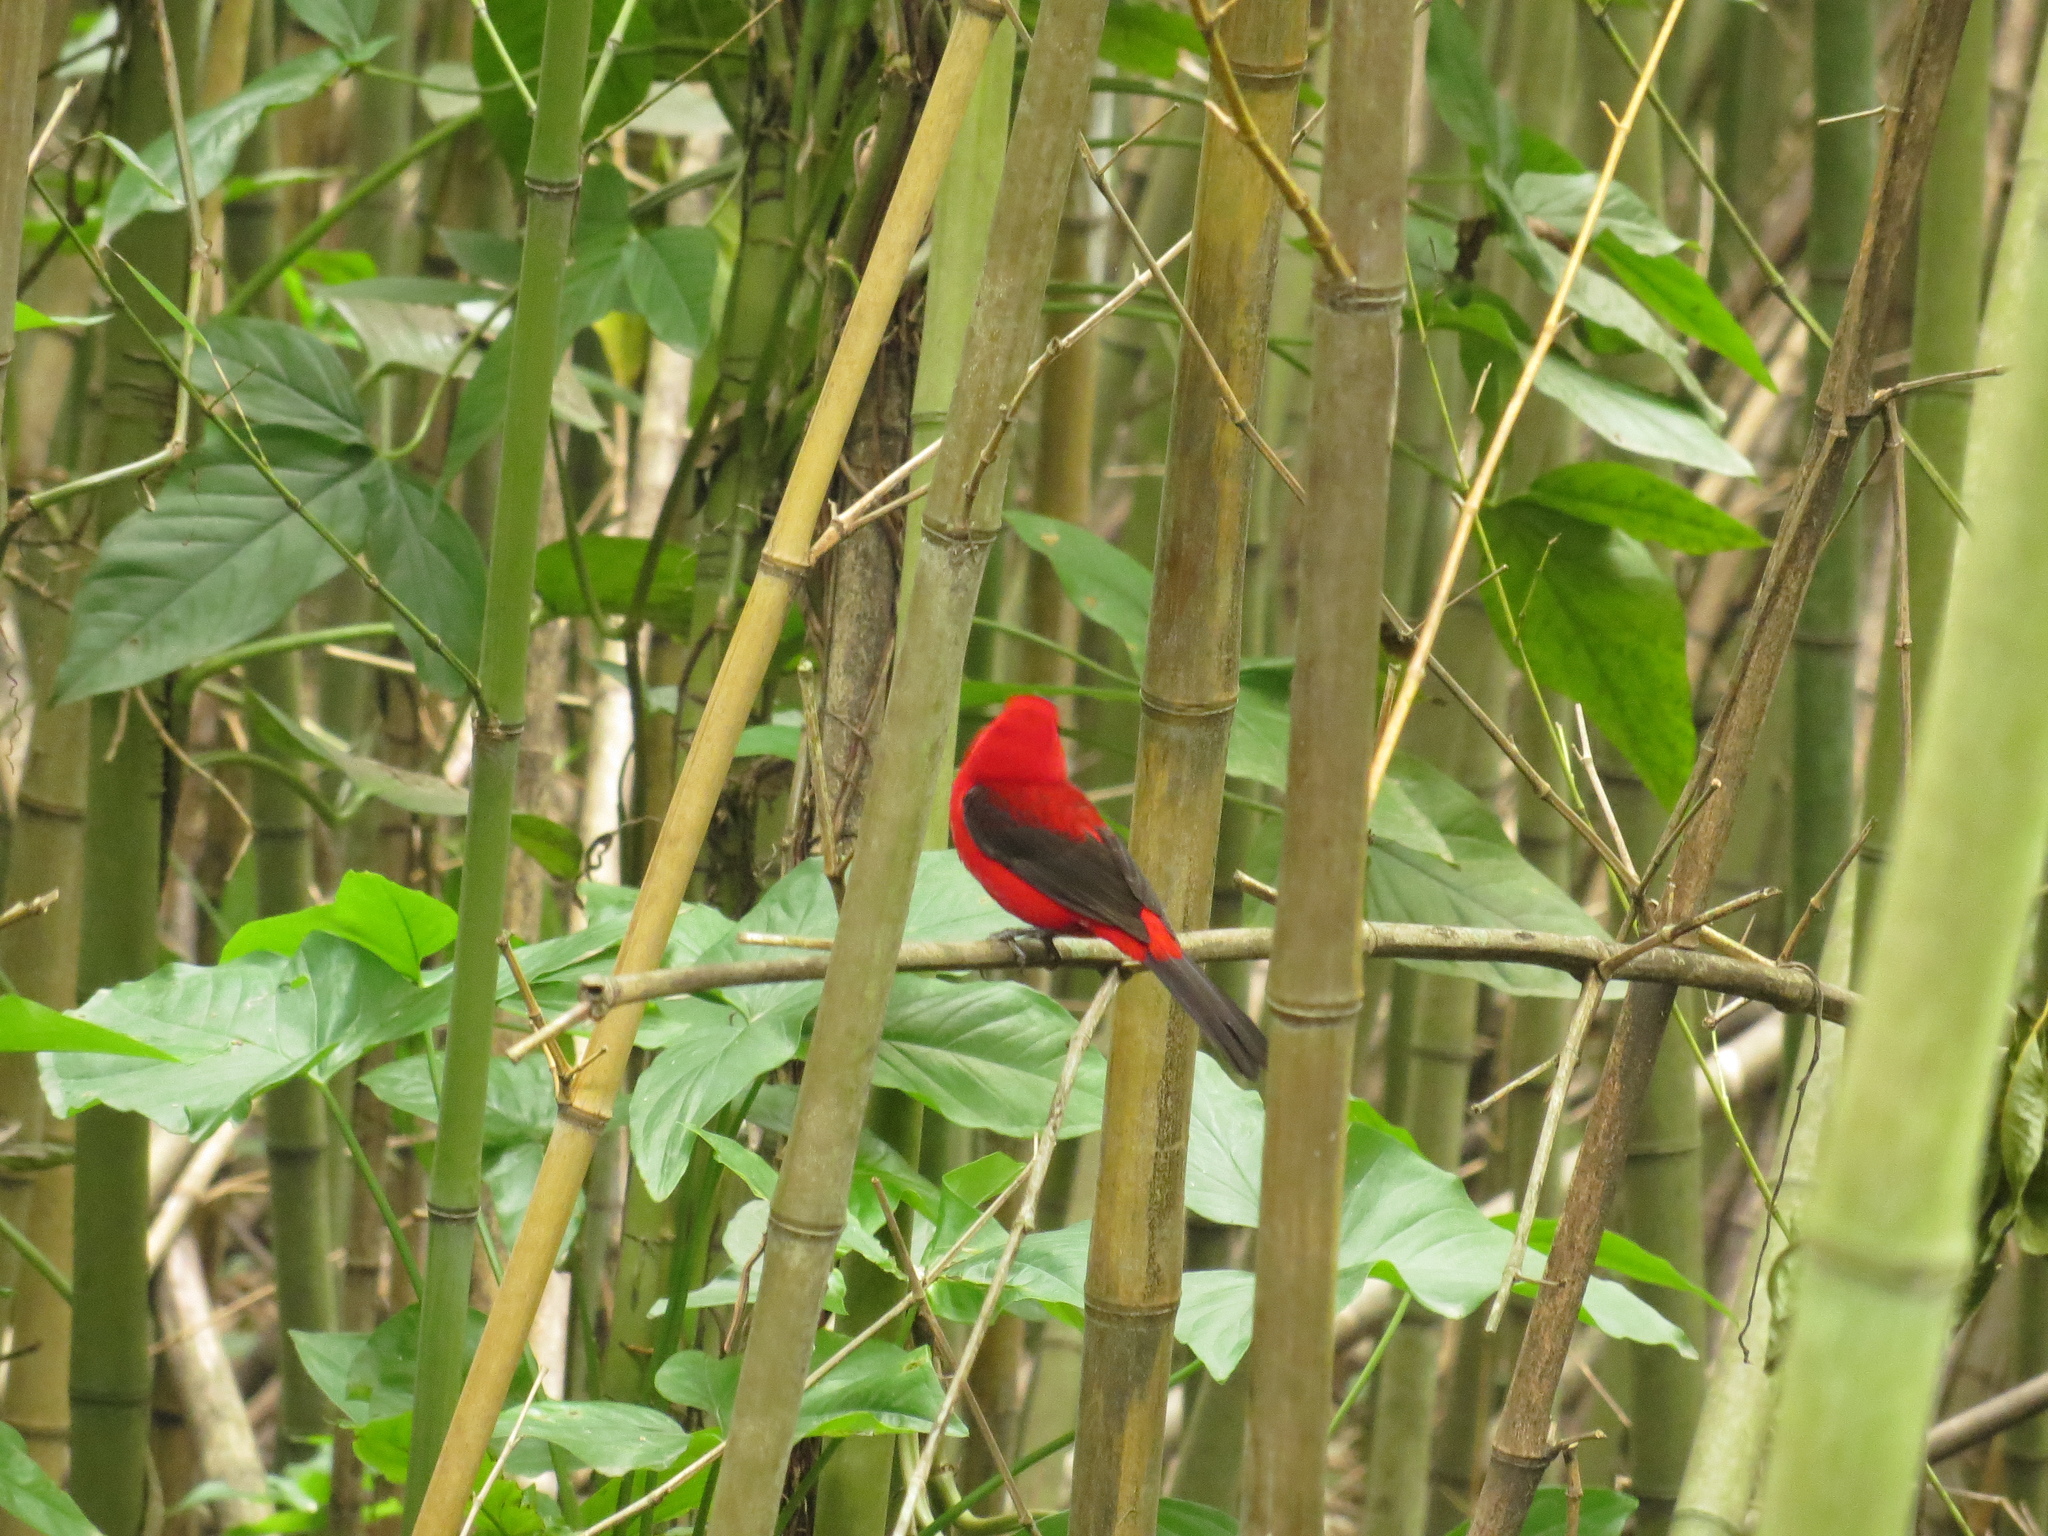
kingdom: Animalia
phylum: Chordata
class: Aves
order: Passeriformes
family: Thraupidae
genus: Ramphocelus
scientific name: Ramphocelus bresilia
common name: Brazilian tanager
